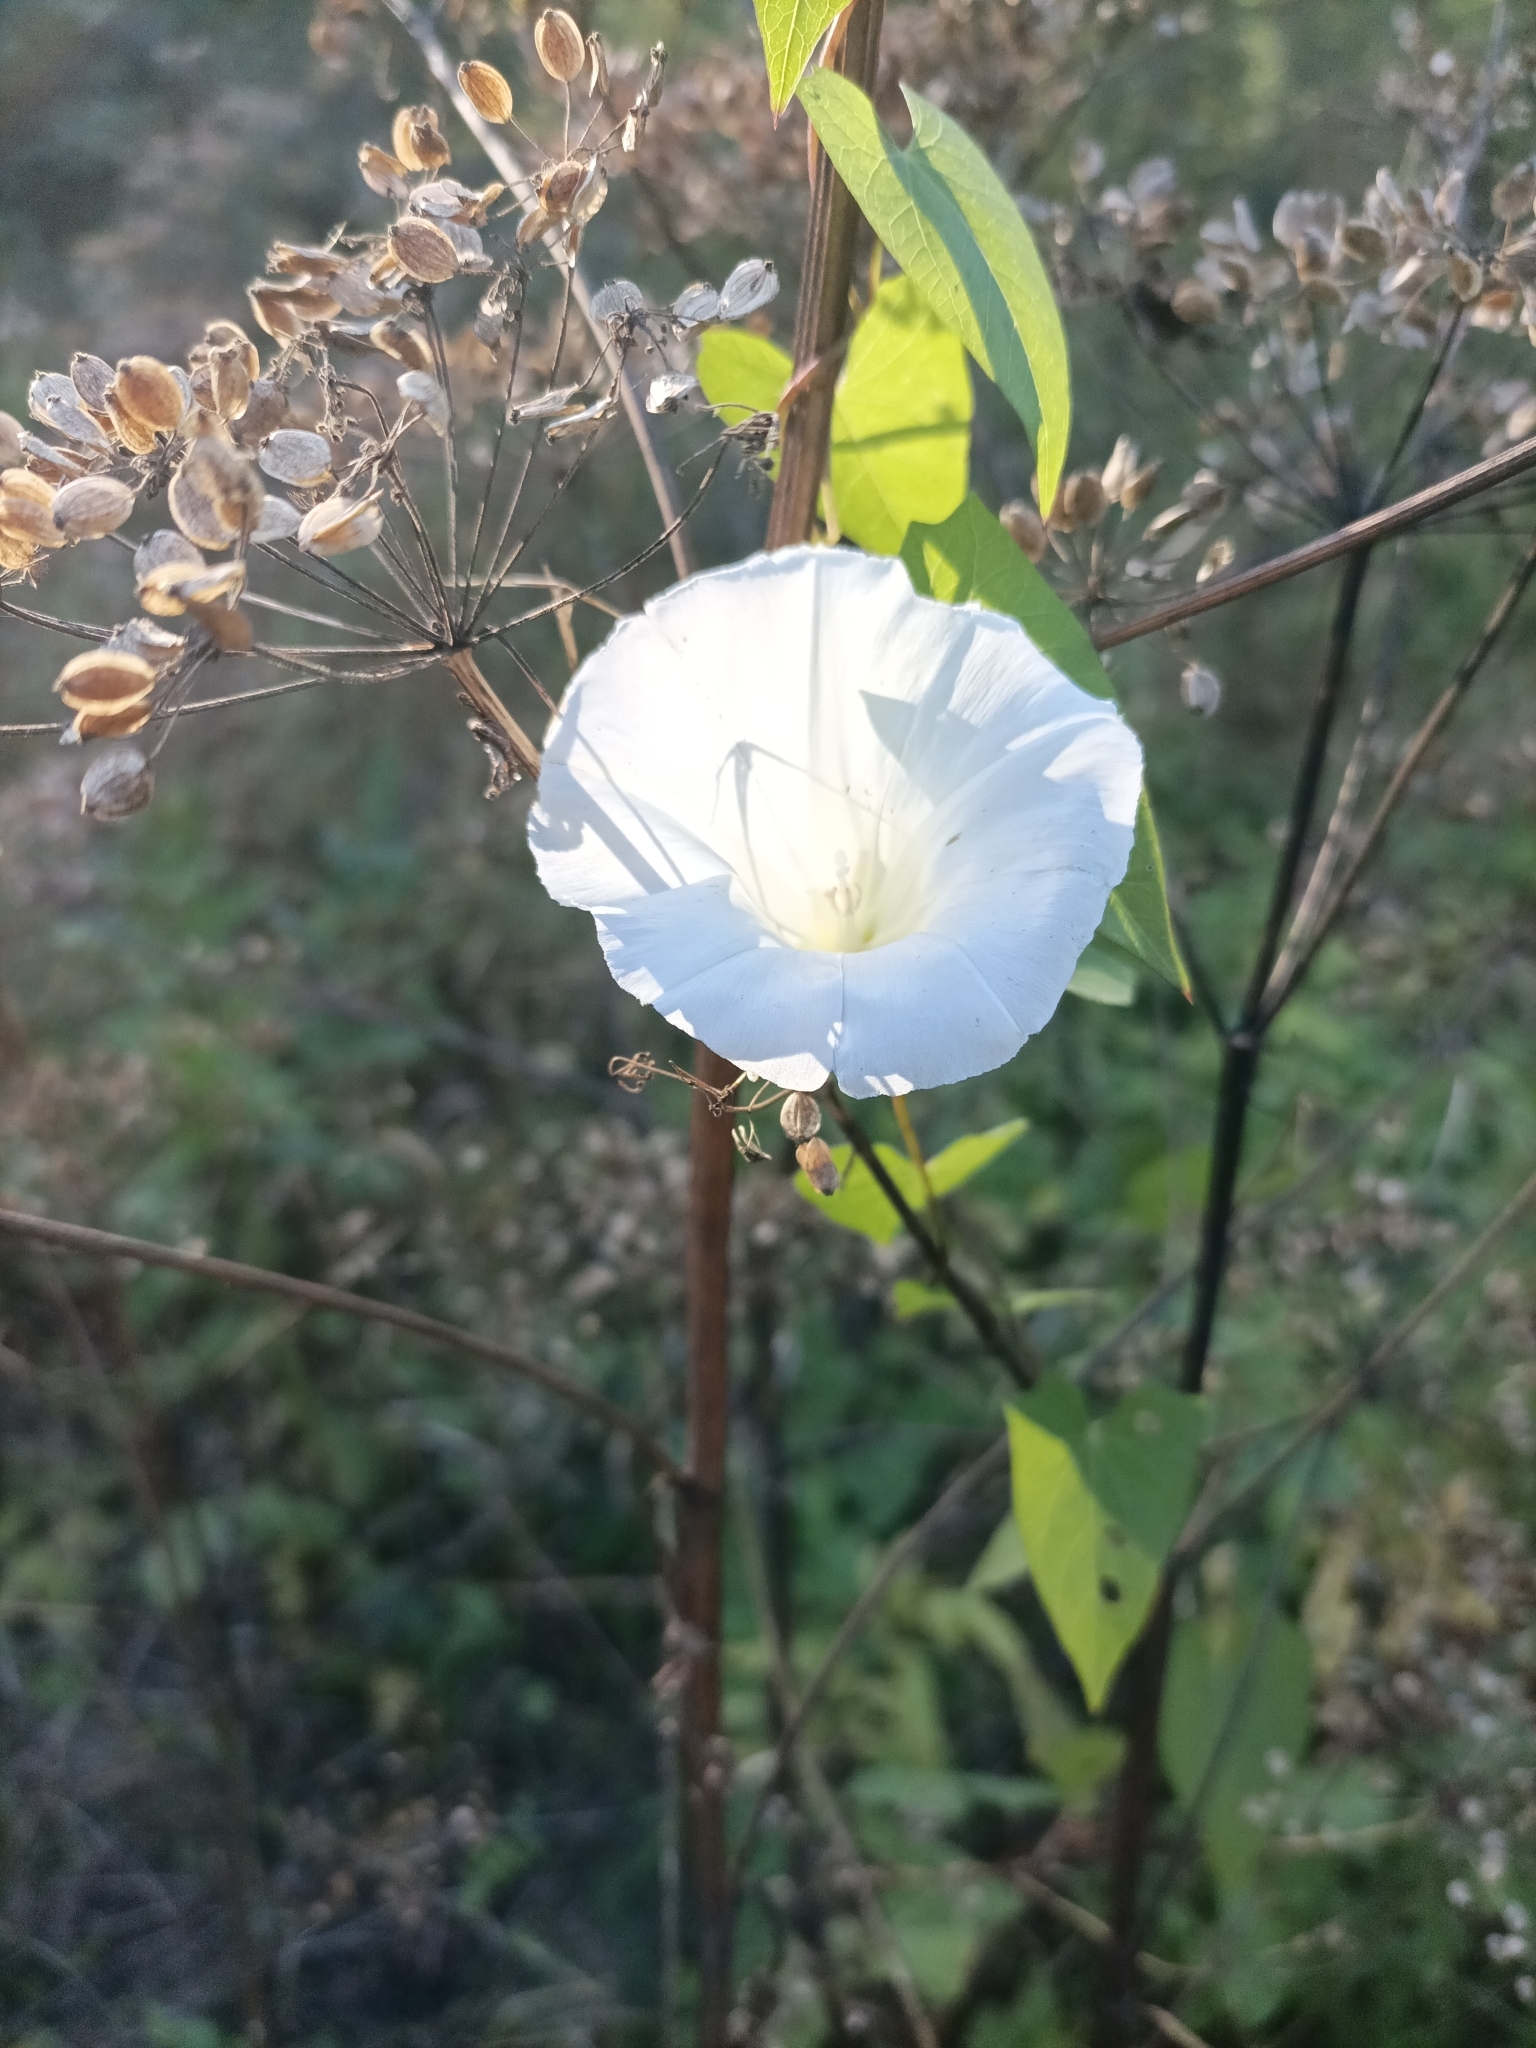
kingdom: Plantae
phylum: Tracheophyta
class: Magnoliopsida
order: Solanales
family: Convolvulaceae
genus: Calystegia
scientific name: Calystegia sepium
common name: Hedge bindweed
